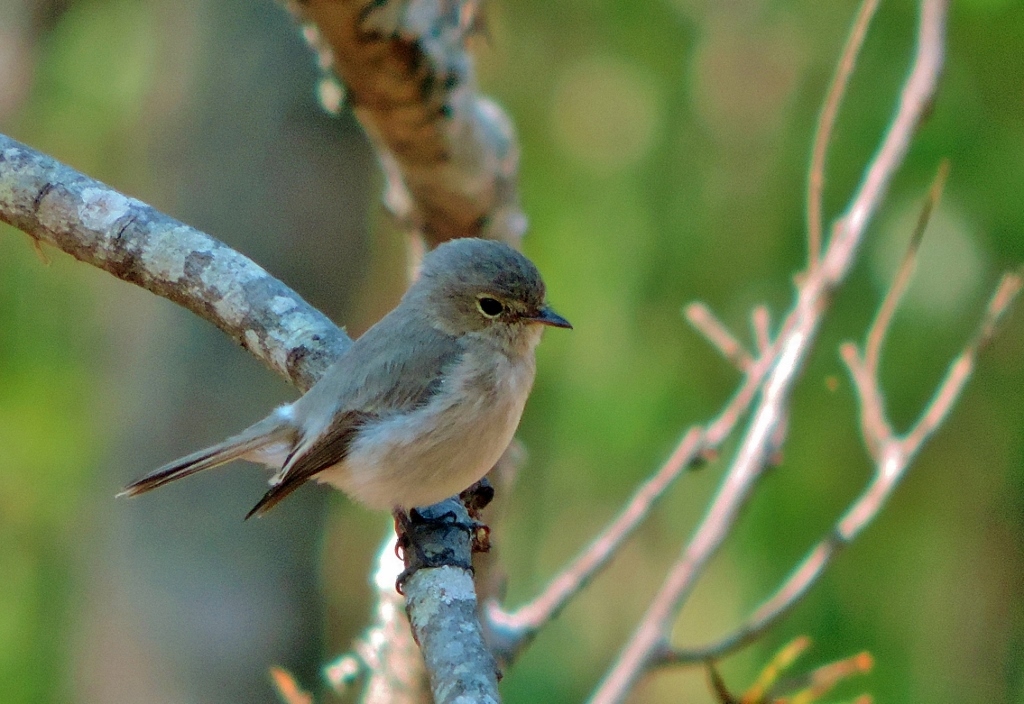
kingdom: Animalia
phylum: Chordata
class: Aves
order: Passeriformes
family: Muscicapidae
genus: Muscicapa
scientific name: Muscicapa adusta
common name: African dusky flycatcher
